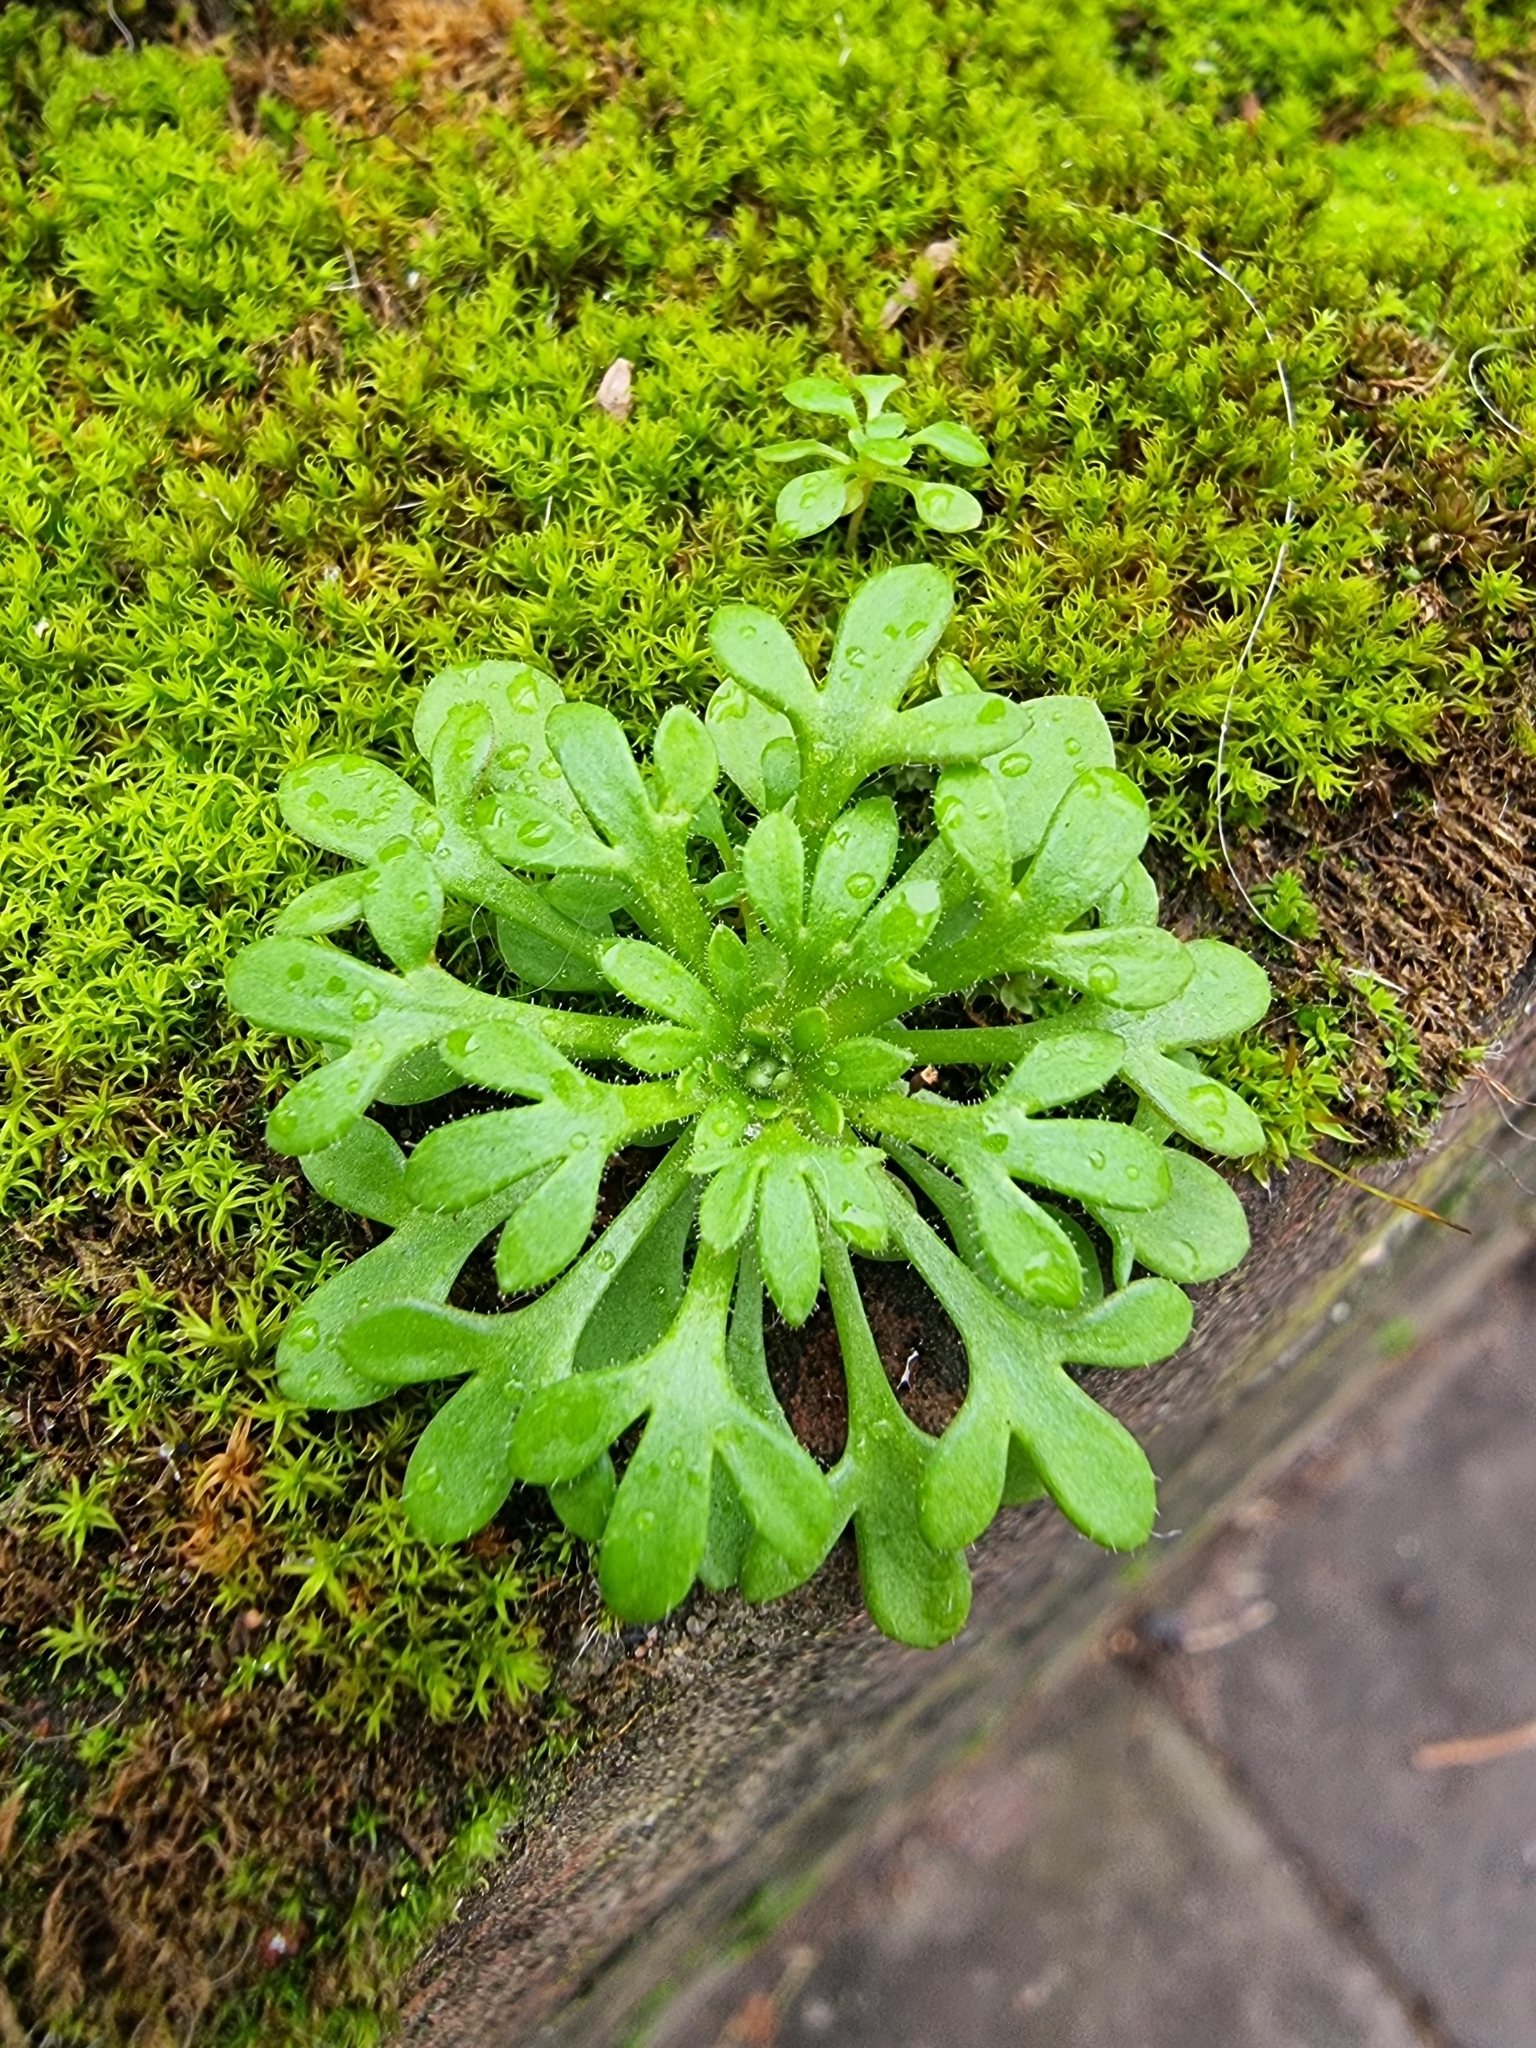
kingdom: Plantae
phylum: Tracheophyta
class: Magnoliopsida
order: Saxifragales
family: Saxifragaceae
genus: Saxifraga
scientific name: Saxifraga tridactylites
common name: Rue-leaved saxifrage
